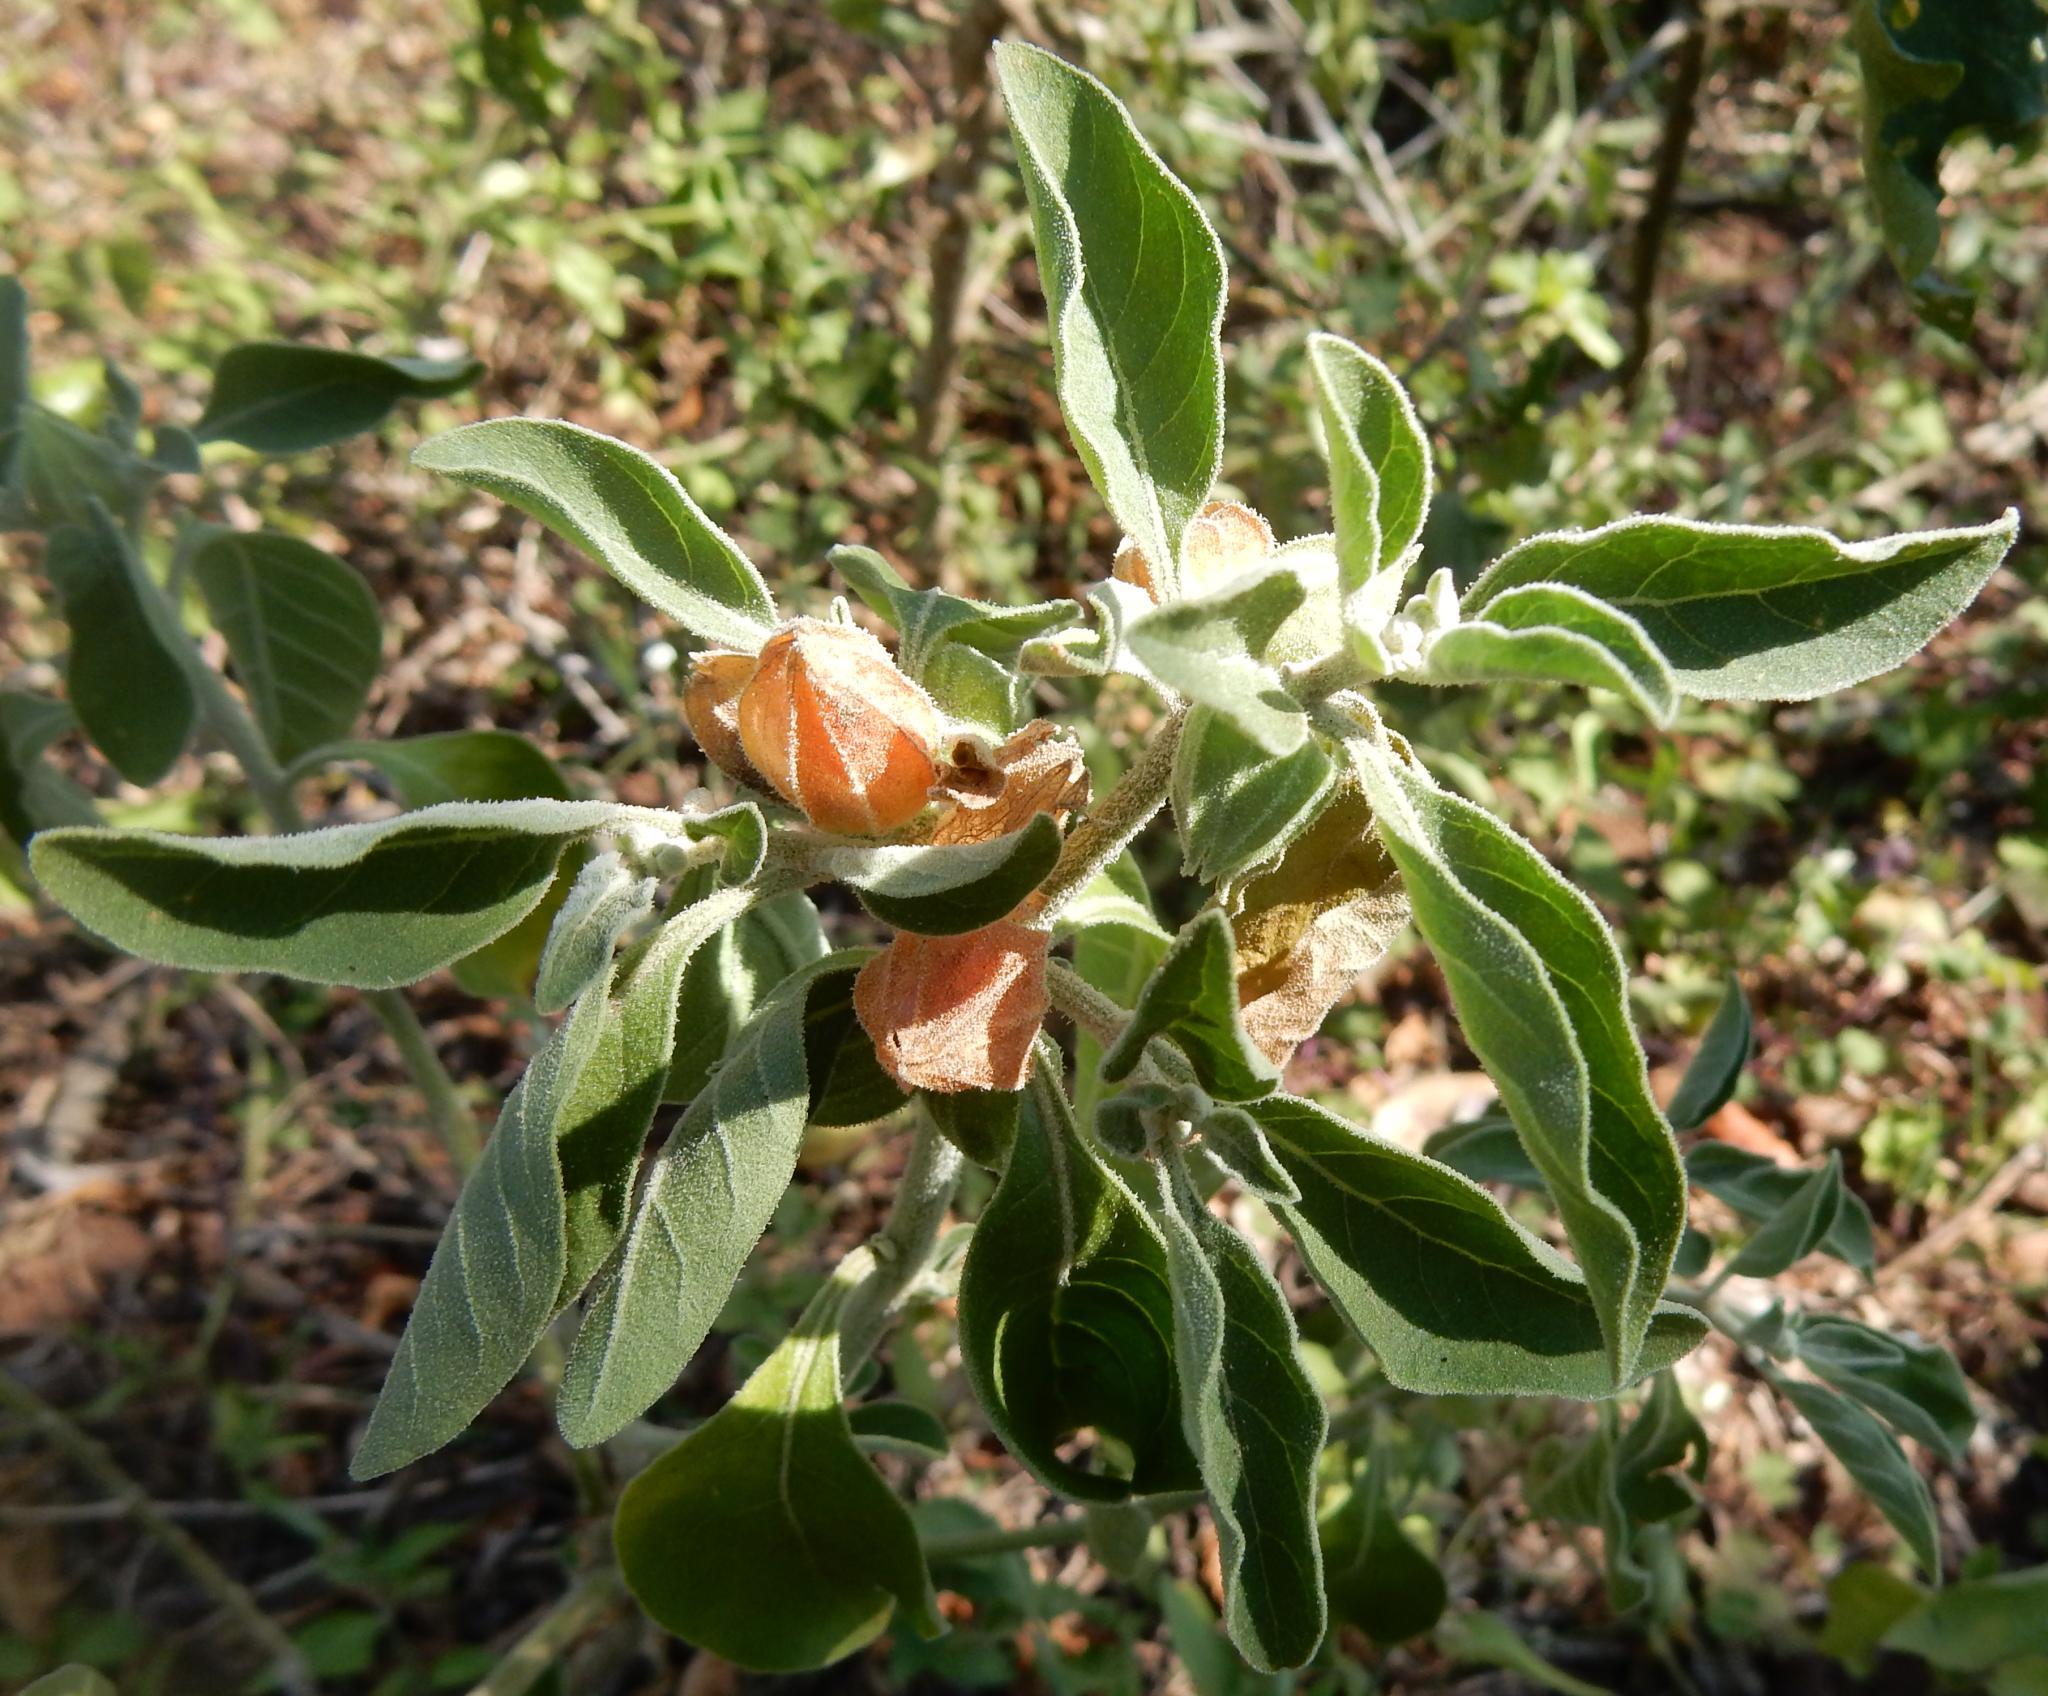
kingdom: Plantae
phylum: Tracheophyta
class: Magnoliopsida
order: Solanales
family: Solanaceae
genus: Withania
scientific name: Withania somnifera
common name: Winter-cherry
